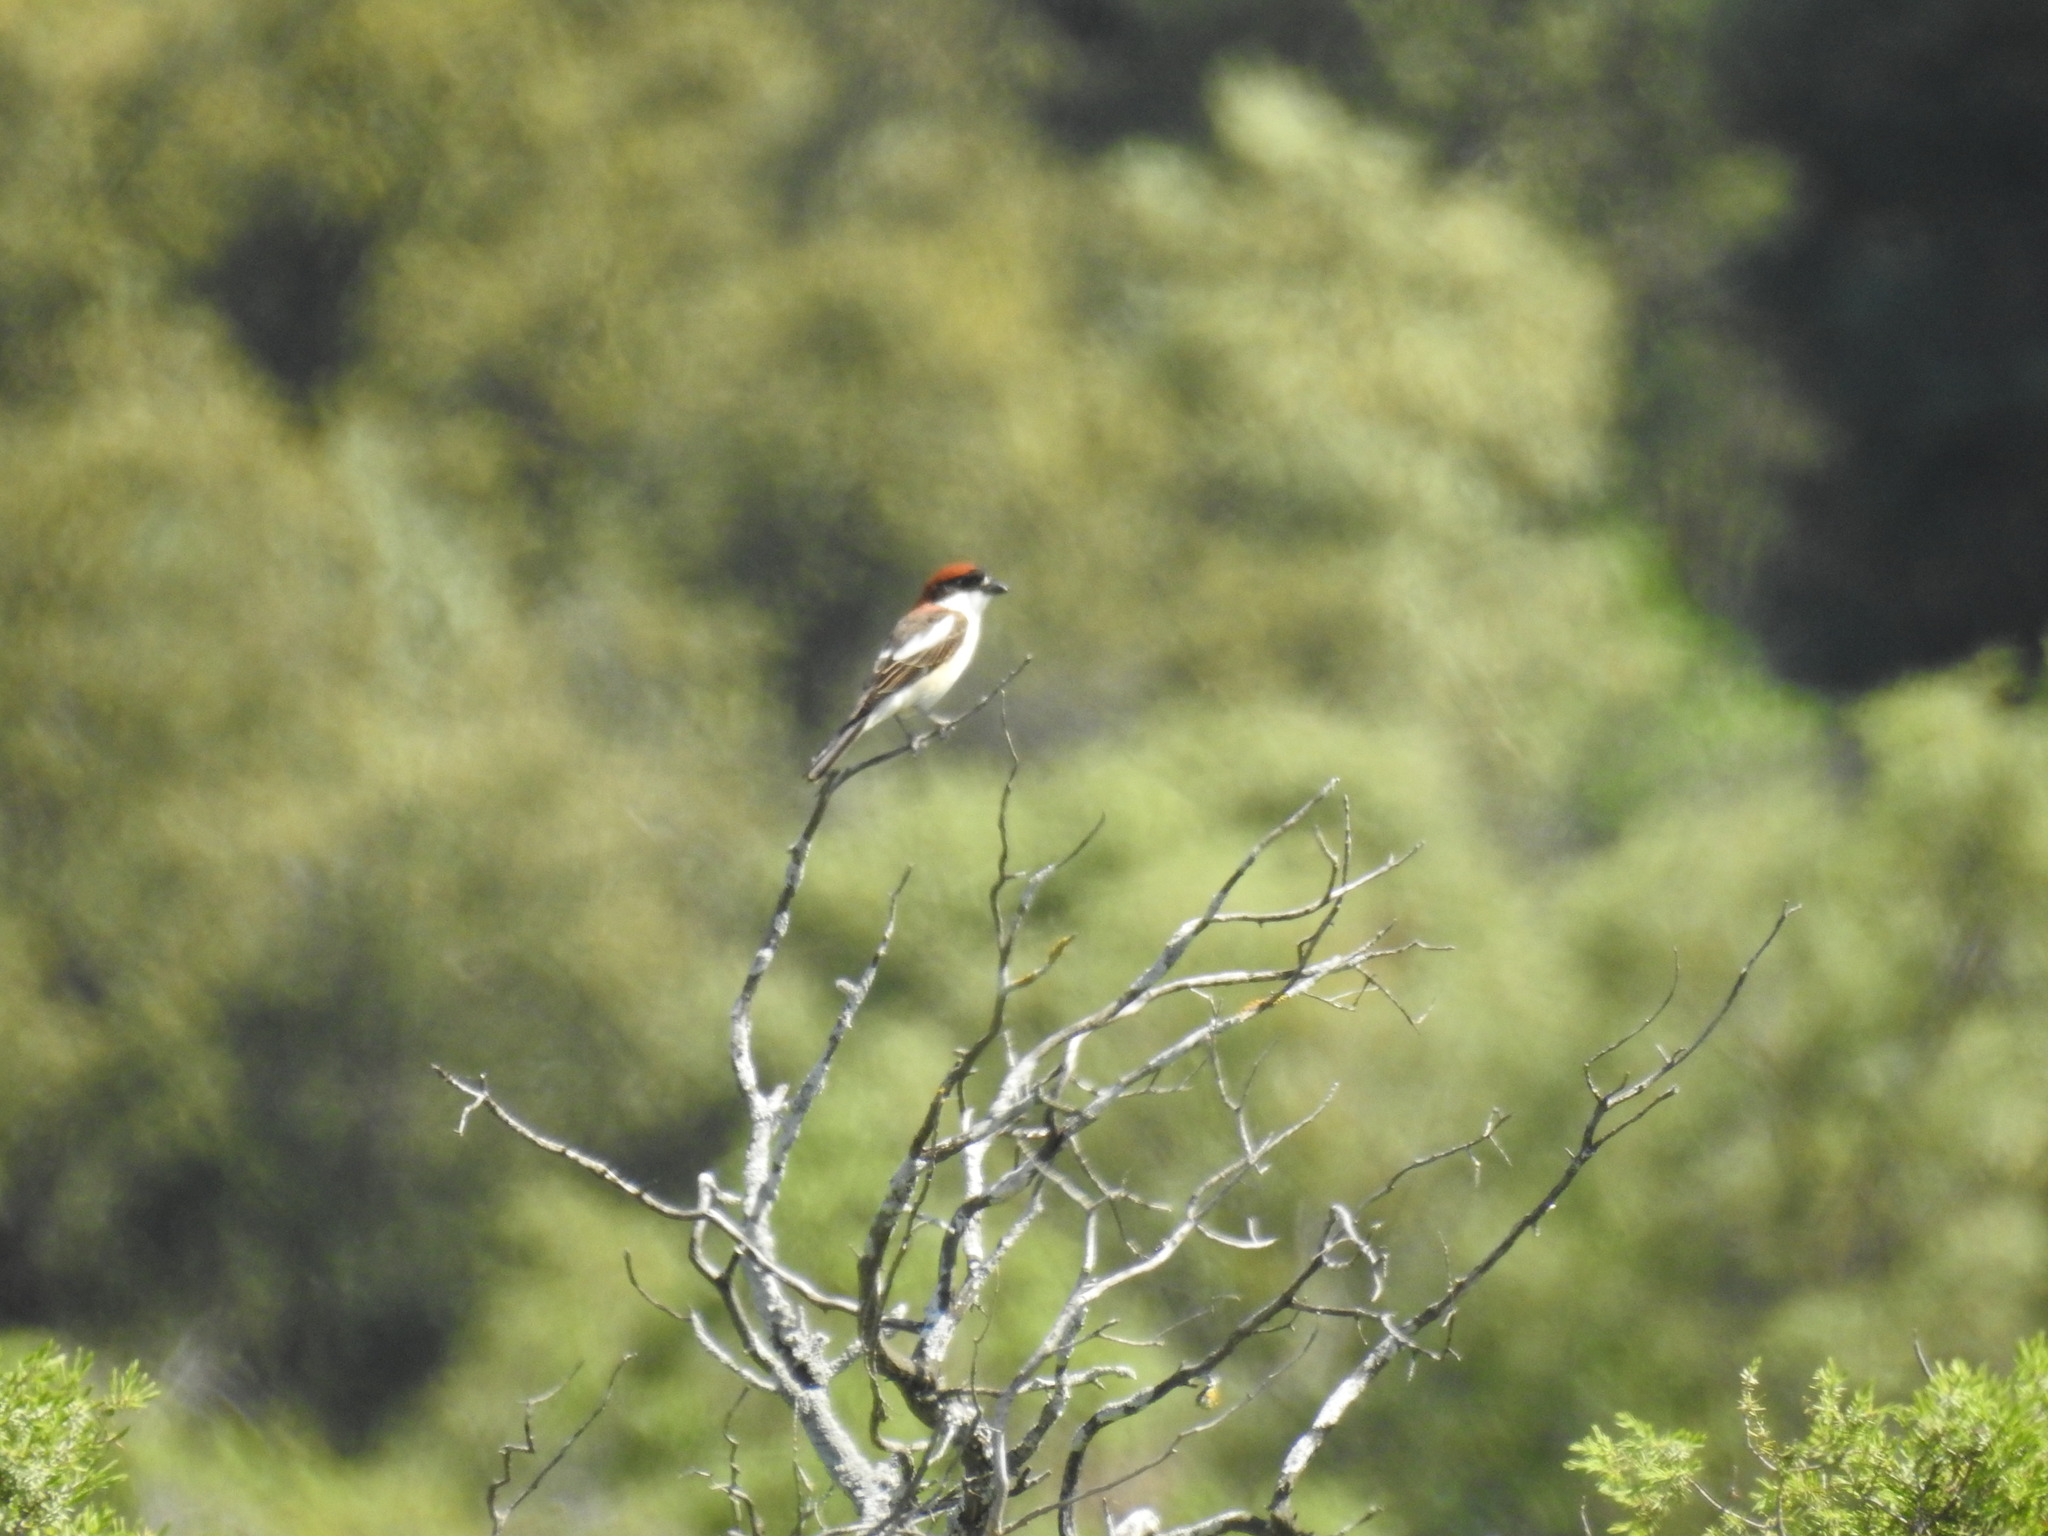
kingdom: Animalia
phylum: Chordata
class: Aves
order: Passeriformes
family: Laniidae
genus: Lanius
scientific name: Lanius senator
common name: Woodchat shrike
